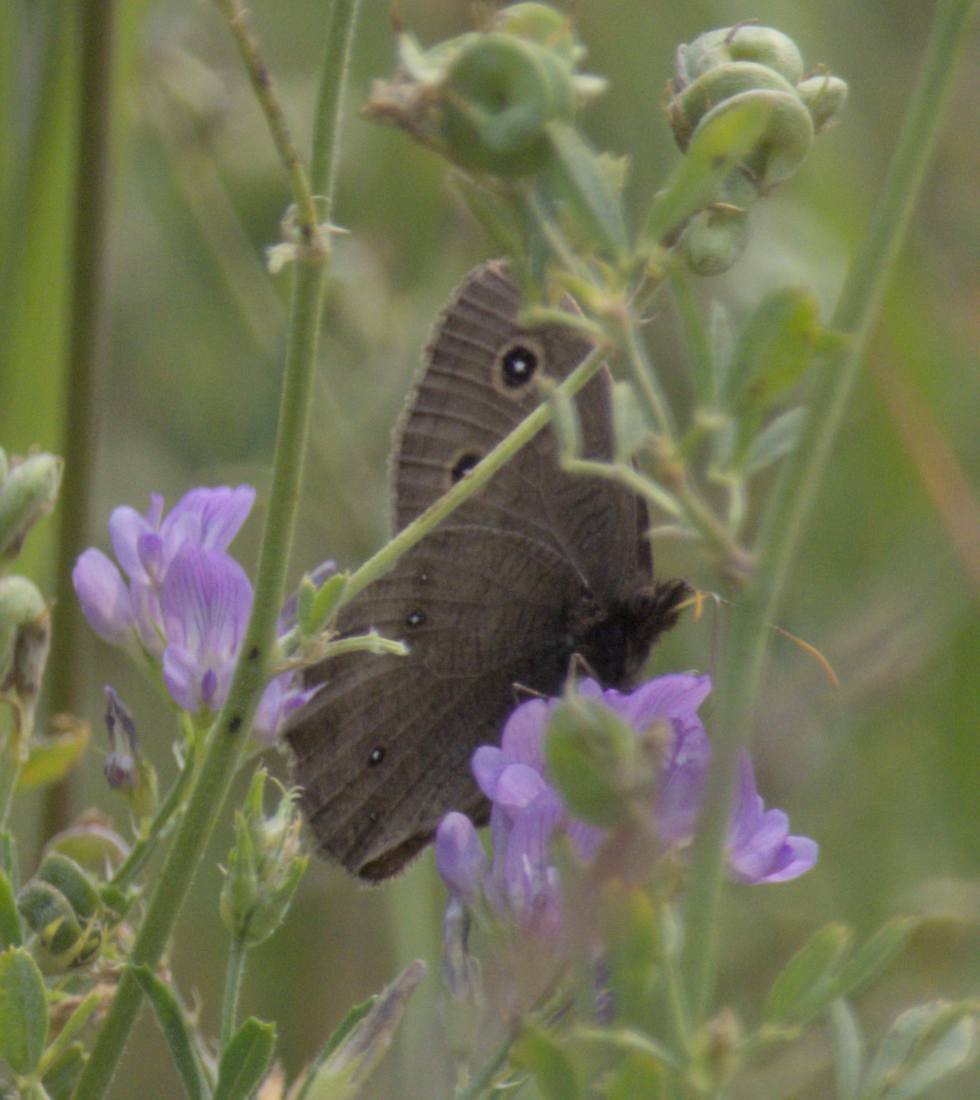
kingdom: Animalia
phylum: Arthropoda
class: Insecta
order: Lepidoptera
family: Nymphalidae
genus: Cercyonis
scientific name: Cercyonis pegala
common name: Common wood-nymph
